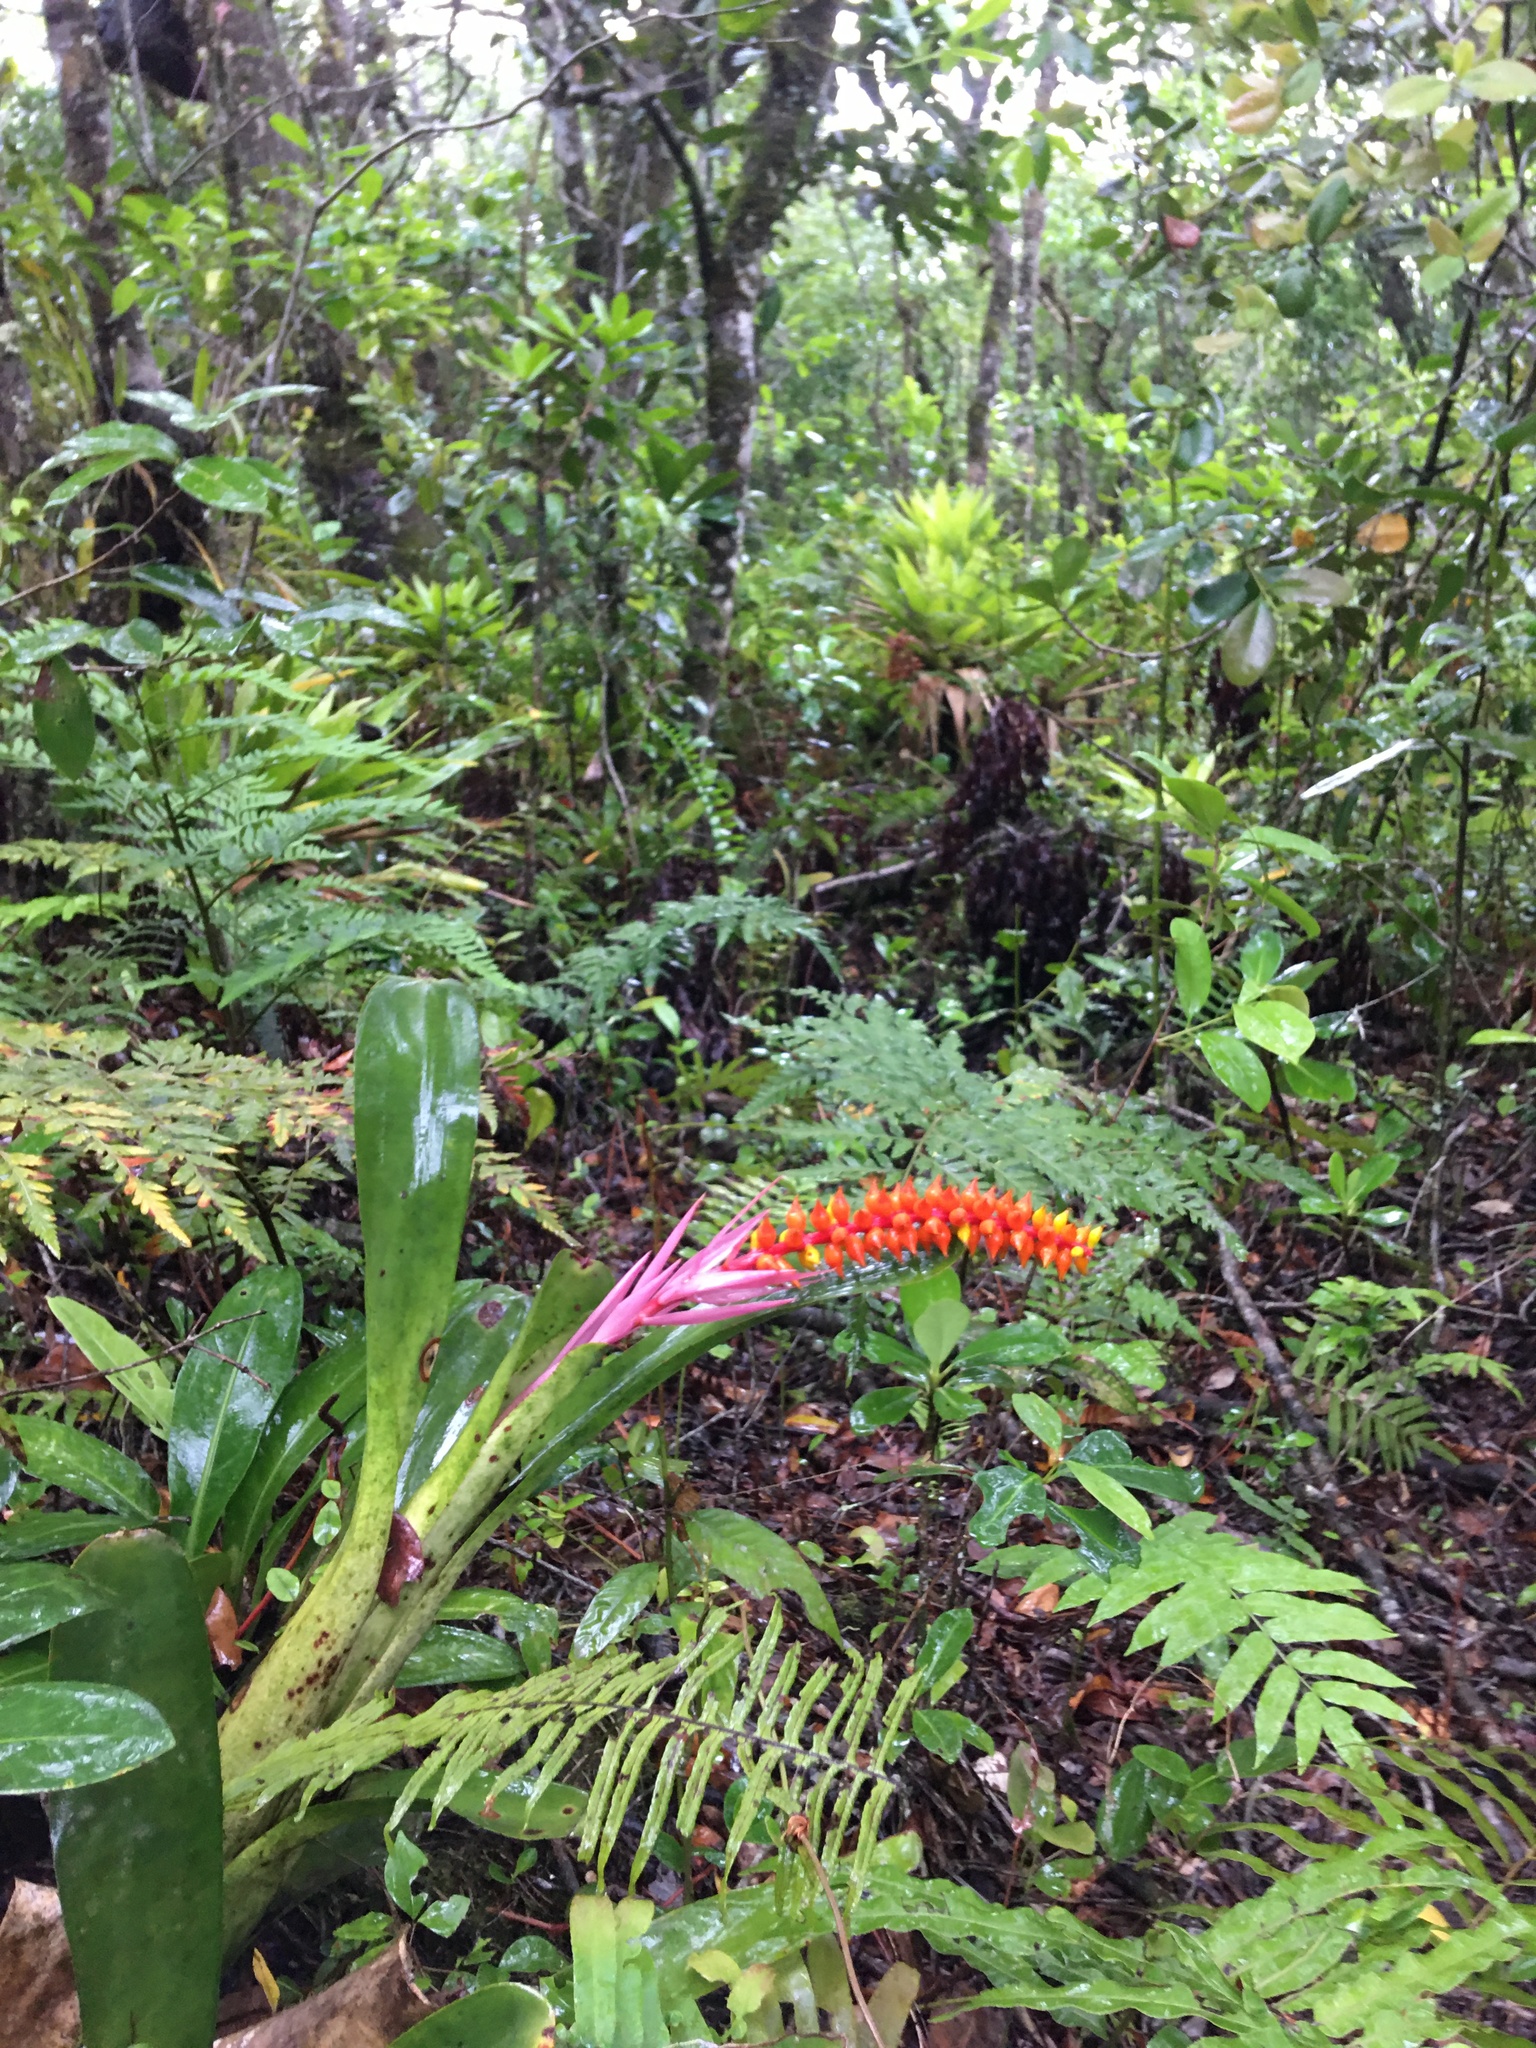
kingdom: Plantae
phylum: Tracheophyta
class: Liliopsida
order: Poales
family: Bromeliaceae
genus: Aechmea
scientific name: Aechmea nudicaulis
